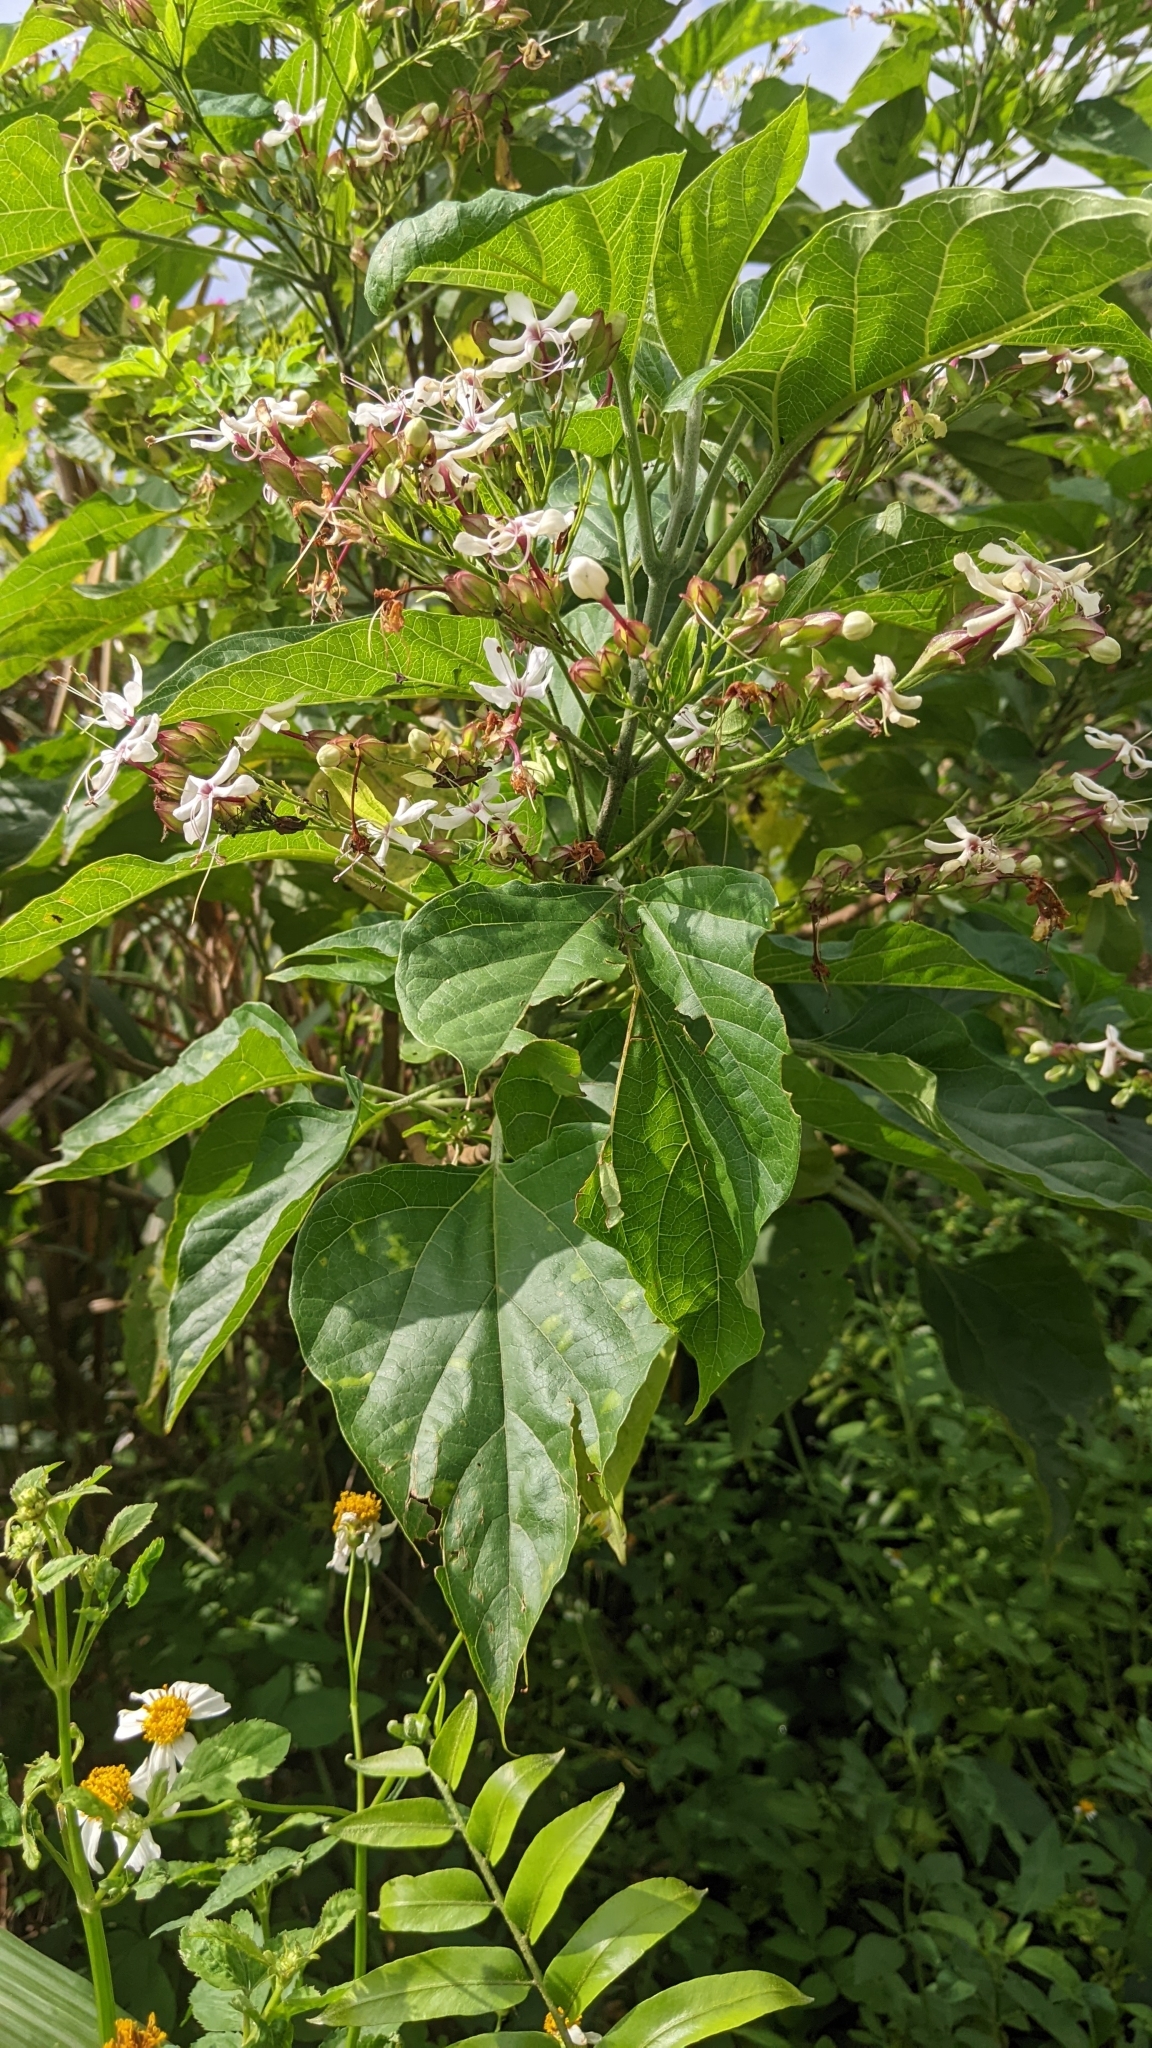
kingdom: Plantae
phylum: Tracheophyta
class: Magnoliopsida
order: Lamiales
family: Lamiaceae
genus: Clerodendrum
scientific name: Clerodendrum trichotomum
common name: Harlequin glorybower
